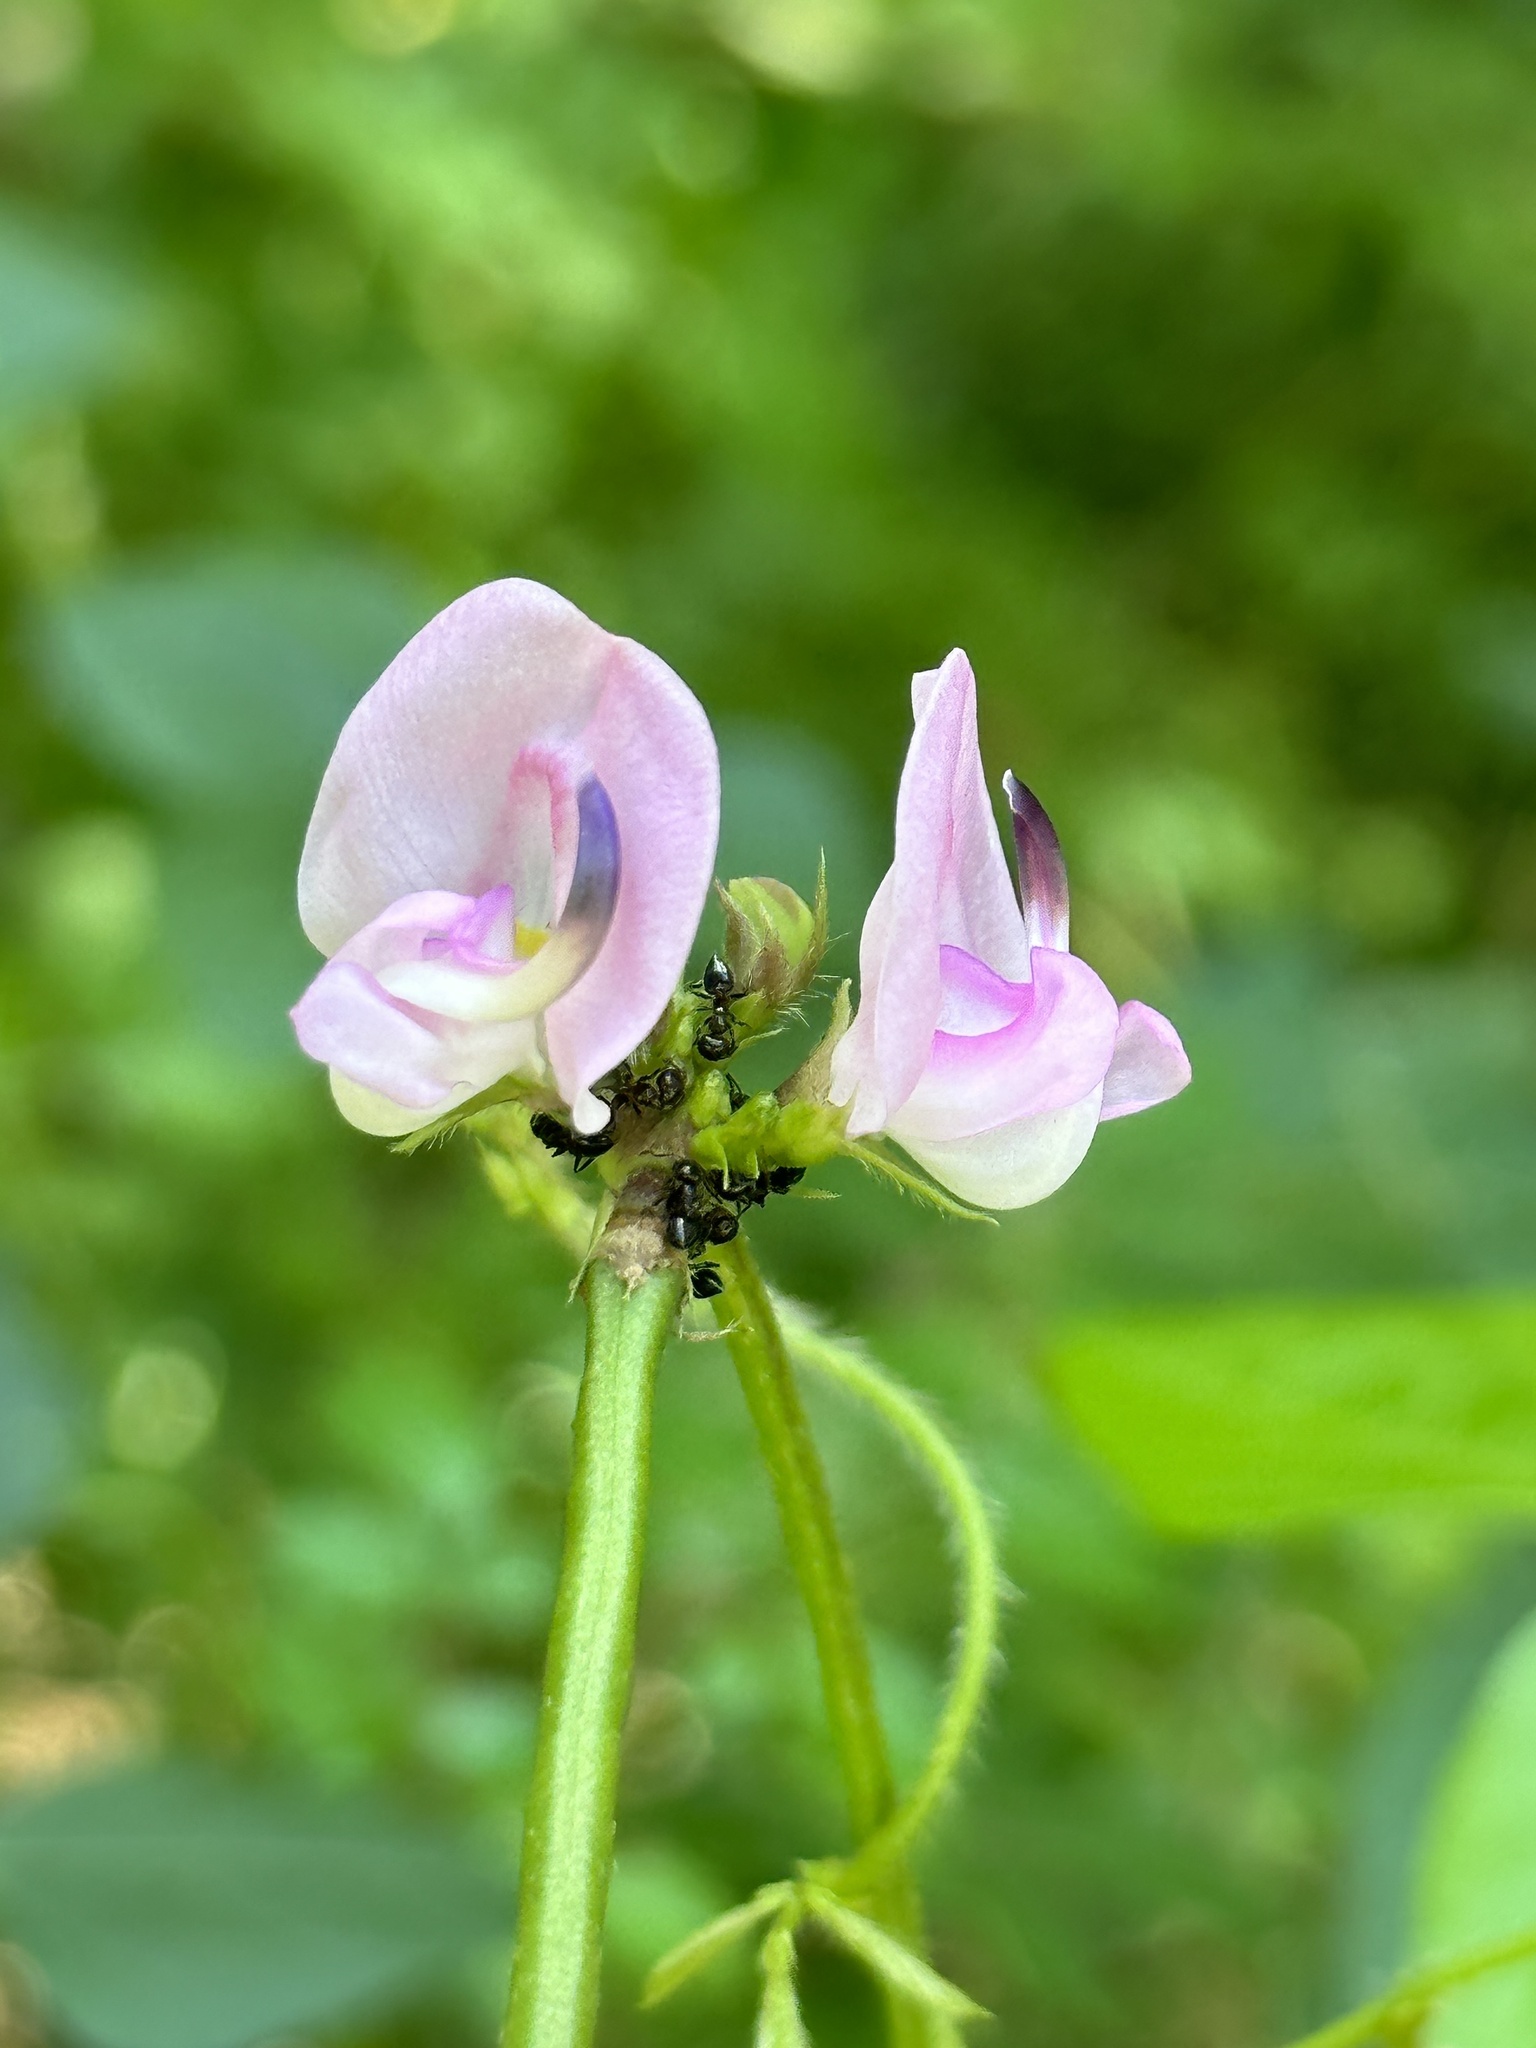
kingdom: Plantae
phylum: Tracheophyta
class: Magnoliopsida
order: Fabales
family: Fabaceae
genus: Strophostyles
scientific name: Strophostyles helvola
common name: Trailing wild bean
